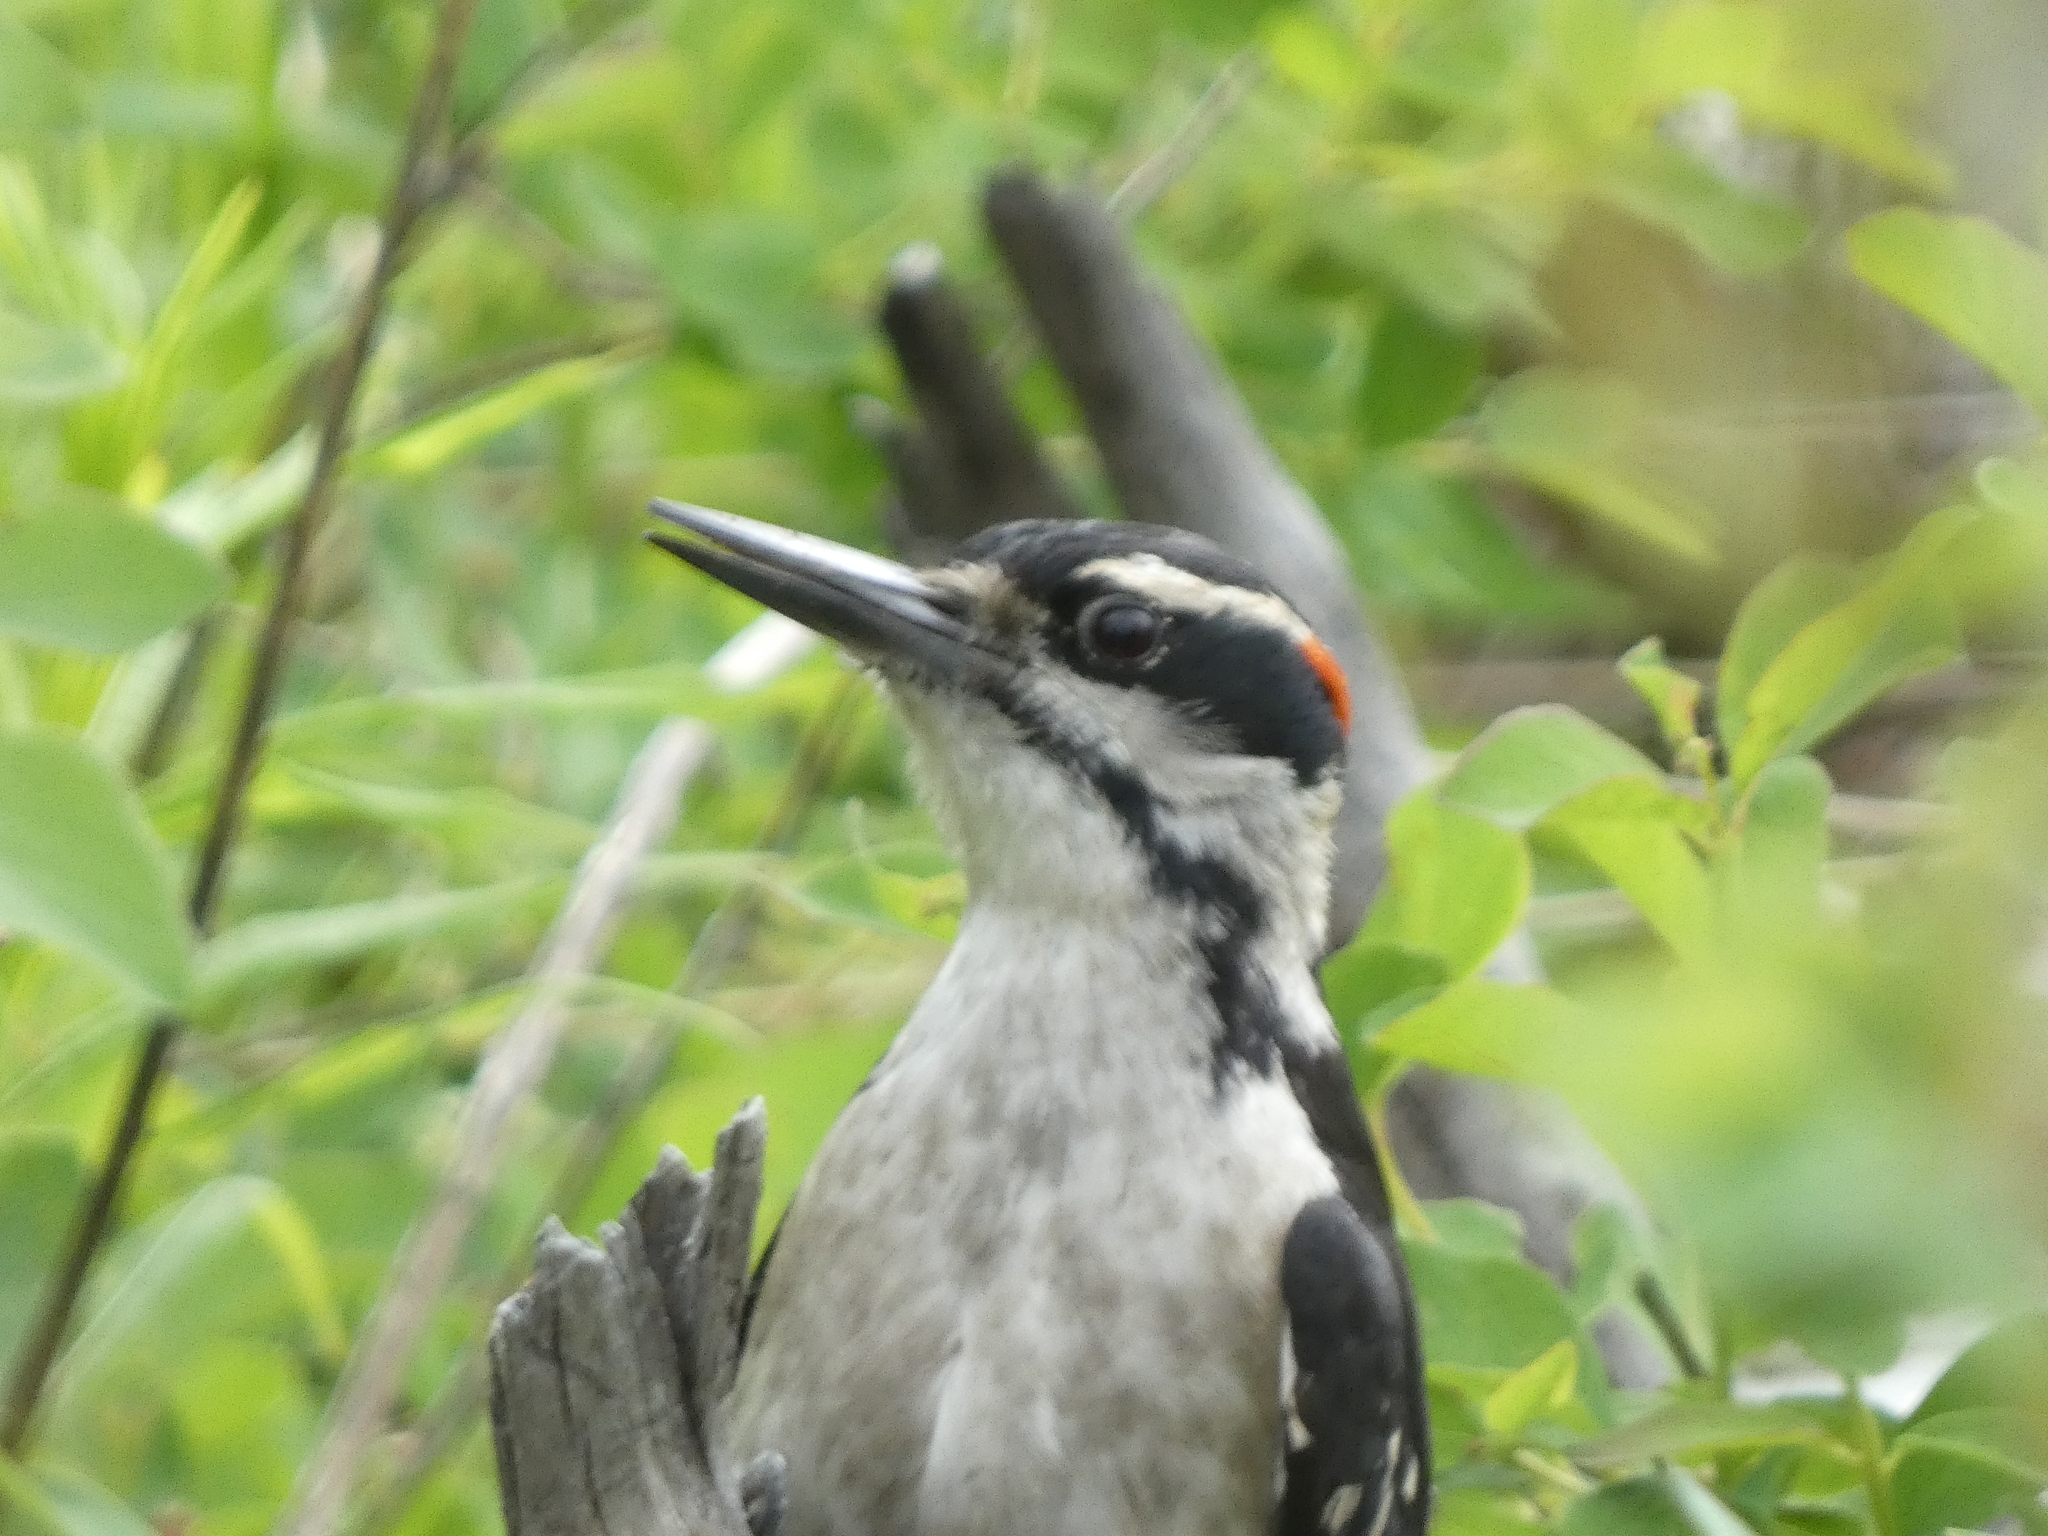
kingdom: Animalia
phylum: Chordata
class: Aves
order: Piciformes
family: Picidae
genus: Leuconotopicus
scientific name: Leuconotopicus villosus
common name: Hairy woodpecker
